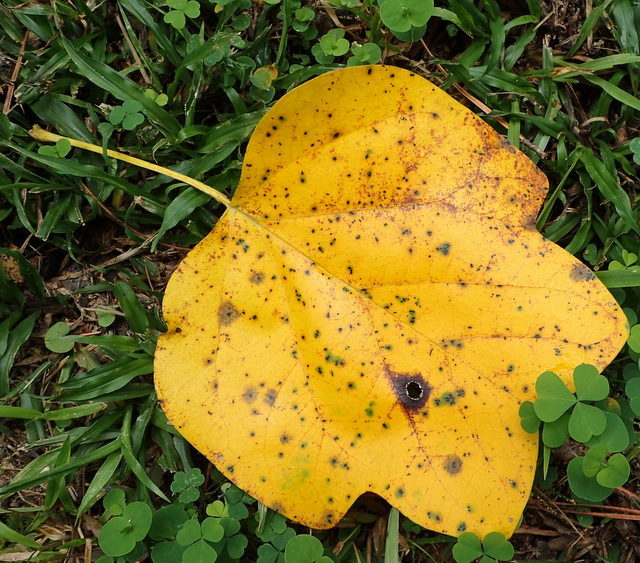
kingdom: Plantae
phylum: Tracheophyta
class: Magnoliopsida
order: Magnoliales
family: Magnoliaceae
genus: Liriodendron
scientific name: Liriodendron tulipifera
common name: Tulip tree
